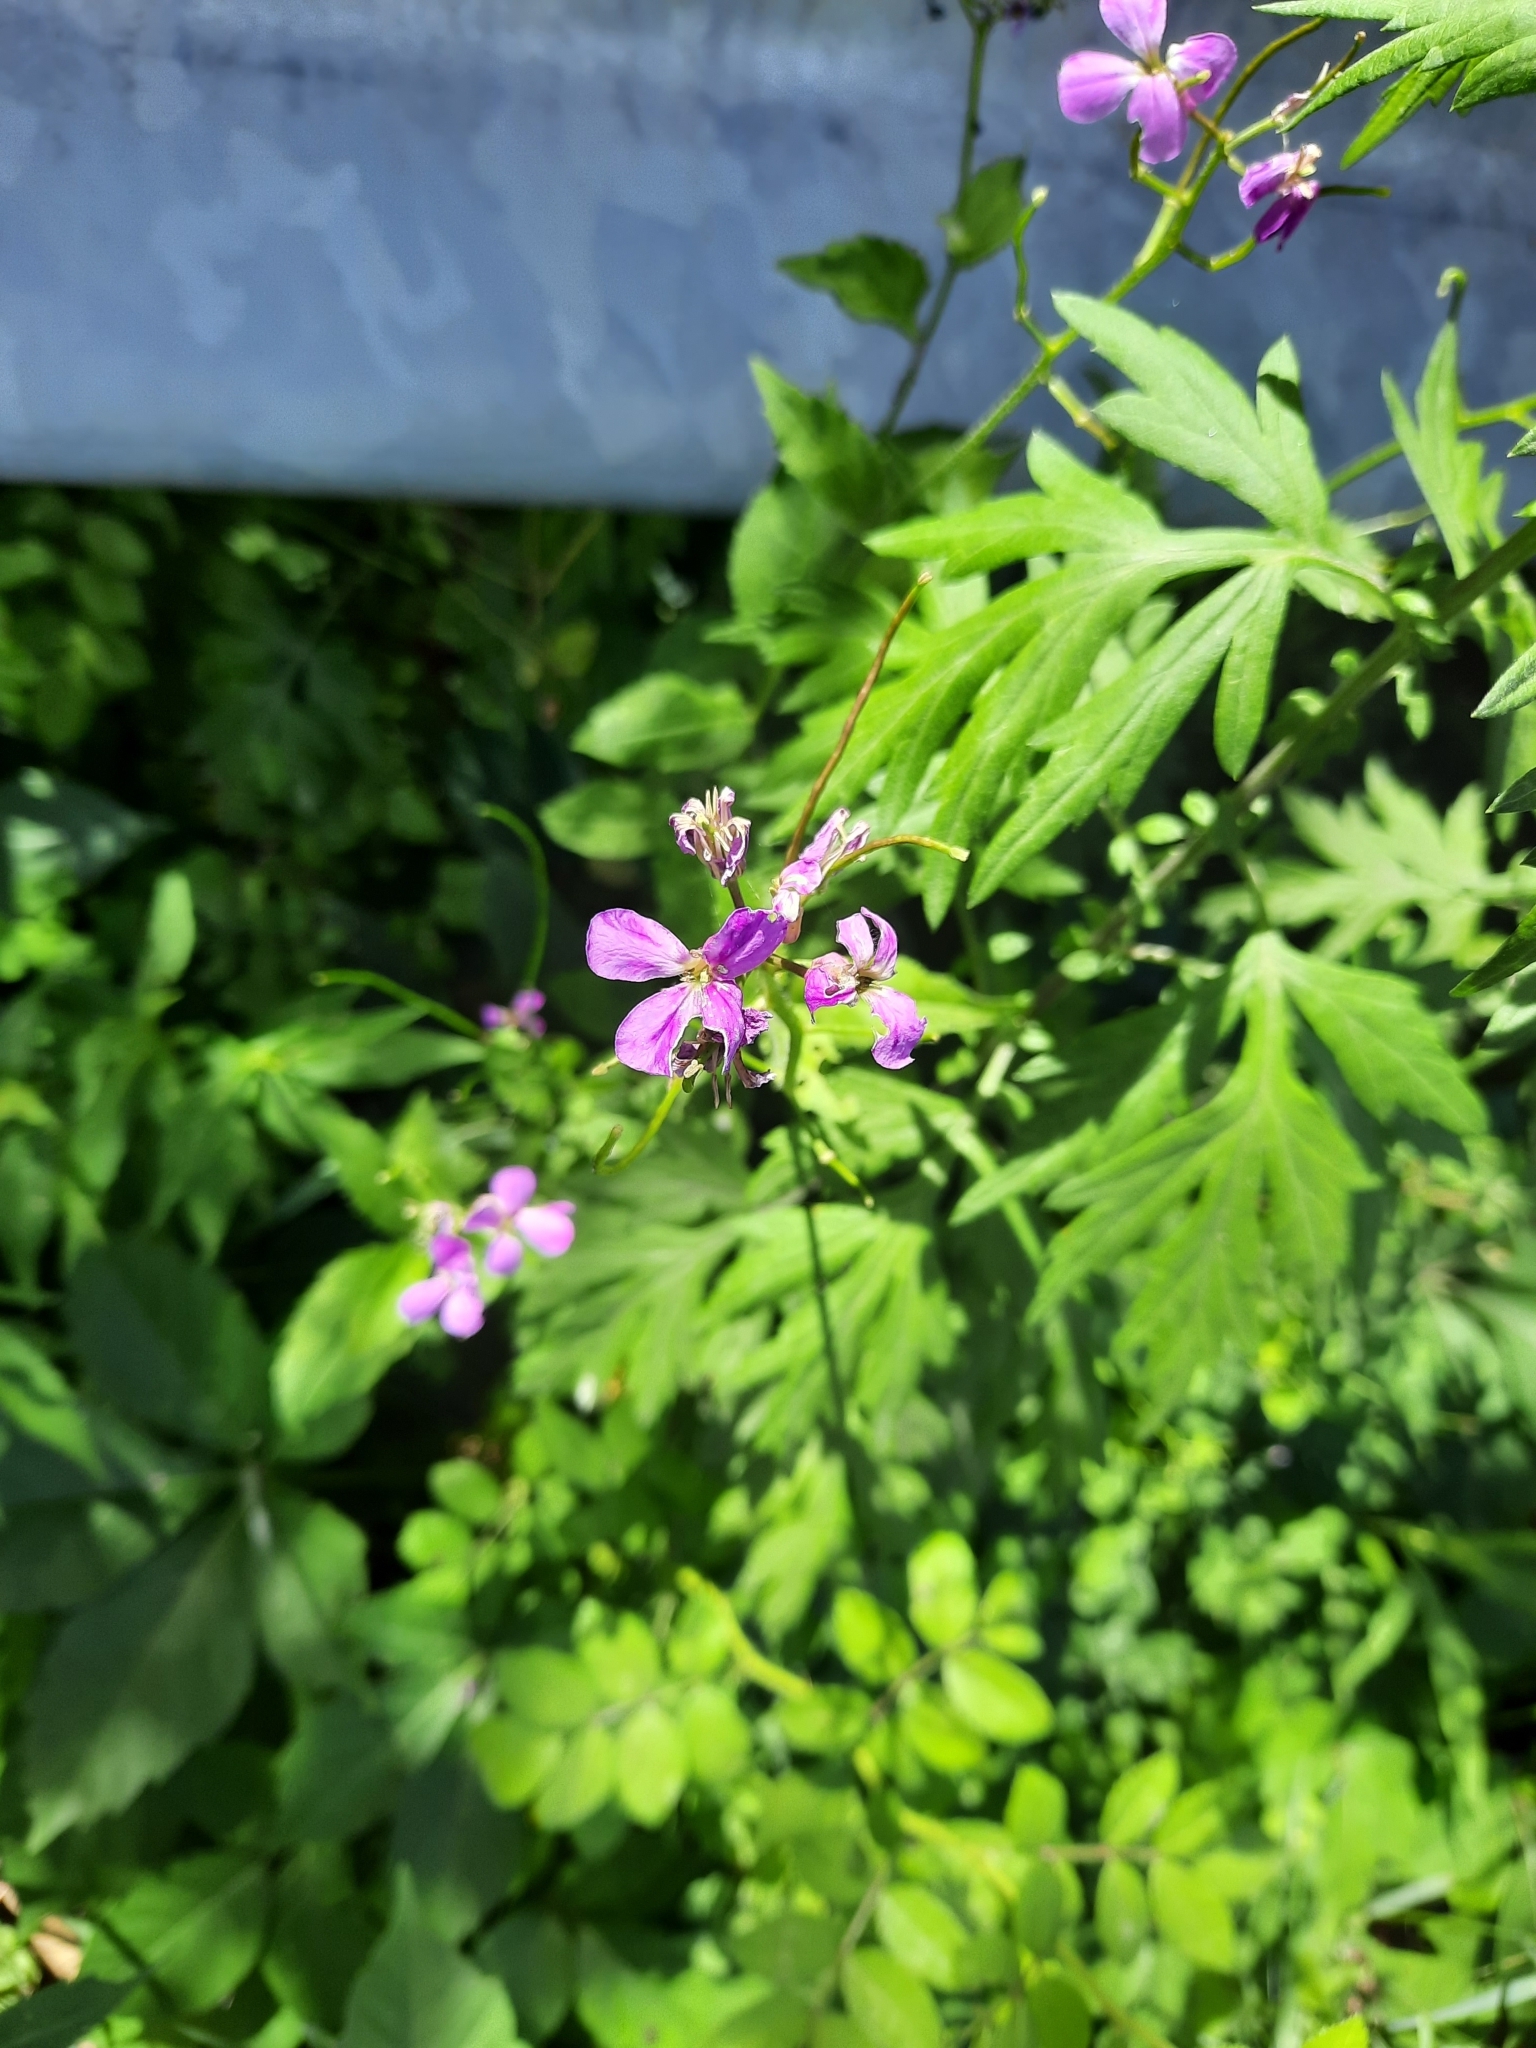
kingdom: Plantae
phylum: Tracheophyta
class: Magnoliopsida
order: Brassicales
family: Brassicaceae
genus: Hesperis
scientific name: Hesperis matronalis
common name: Dame's-violet
